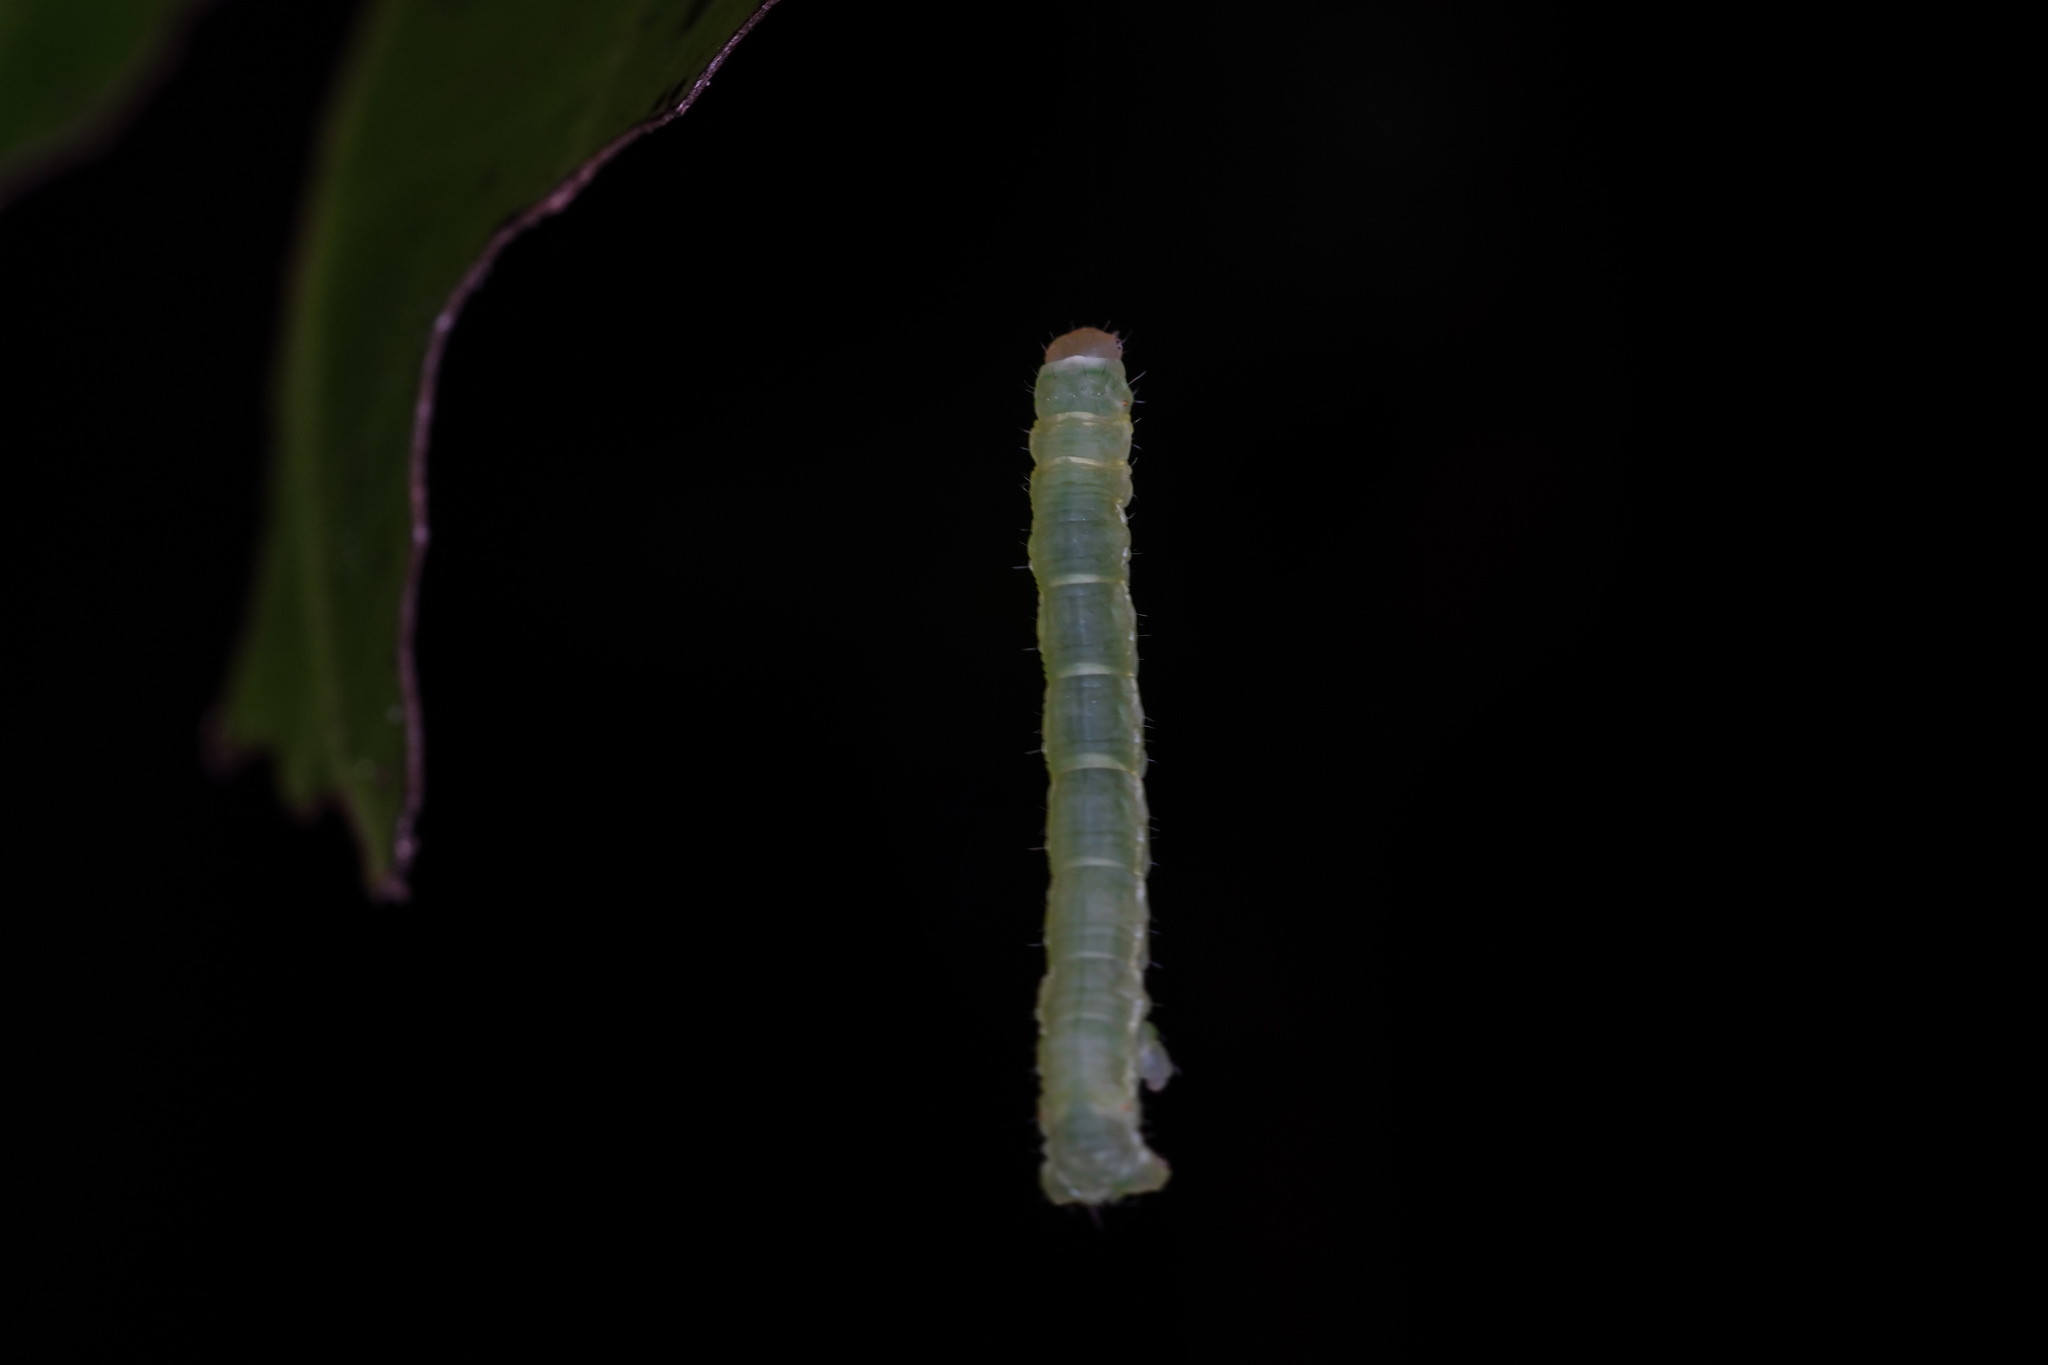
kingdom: Animalia
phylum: Arthropoda
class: Insecta
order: Lepidoptera
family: Geometridae
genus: Cleora
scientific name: Cleora scriptaria
